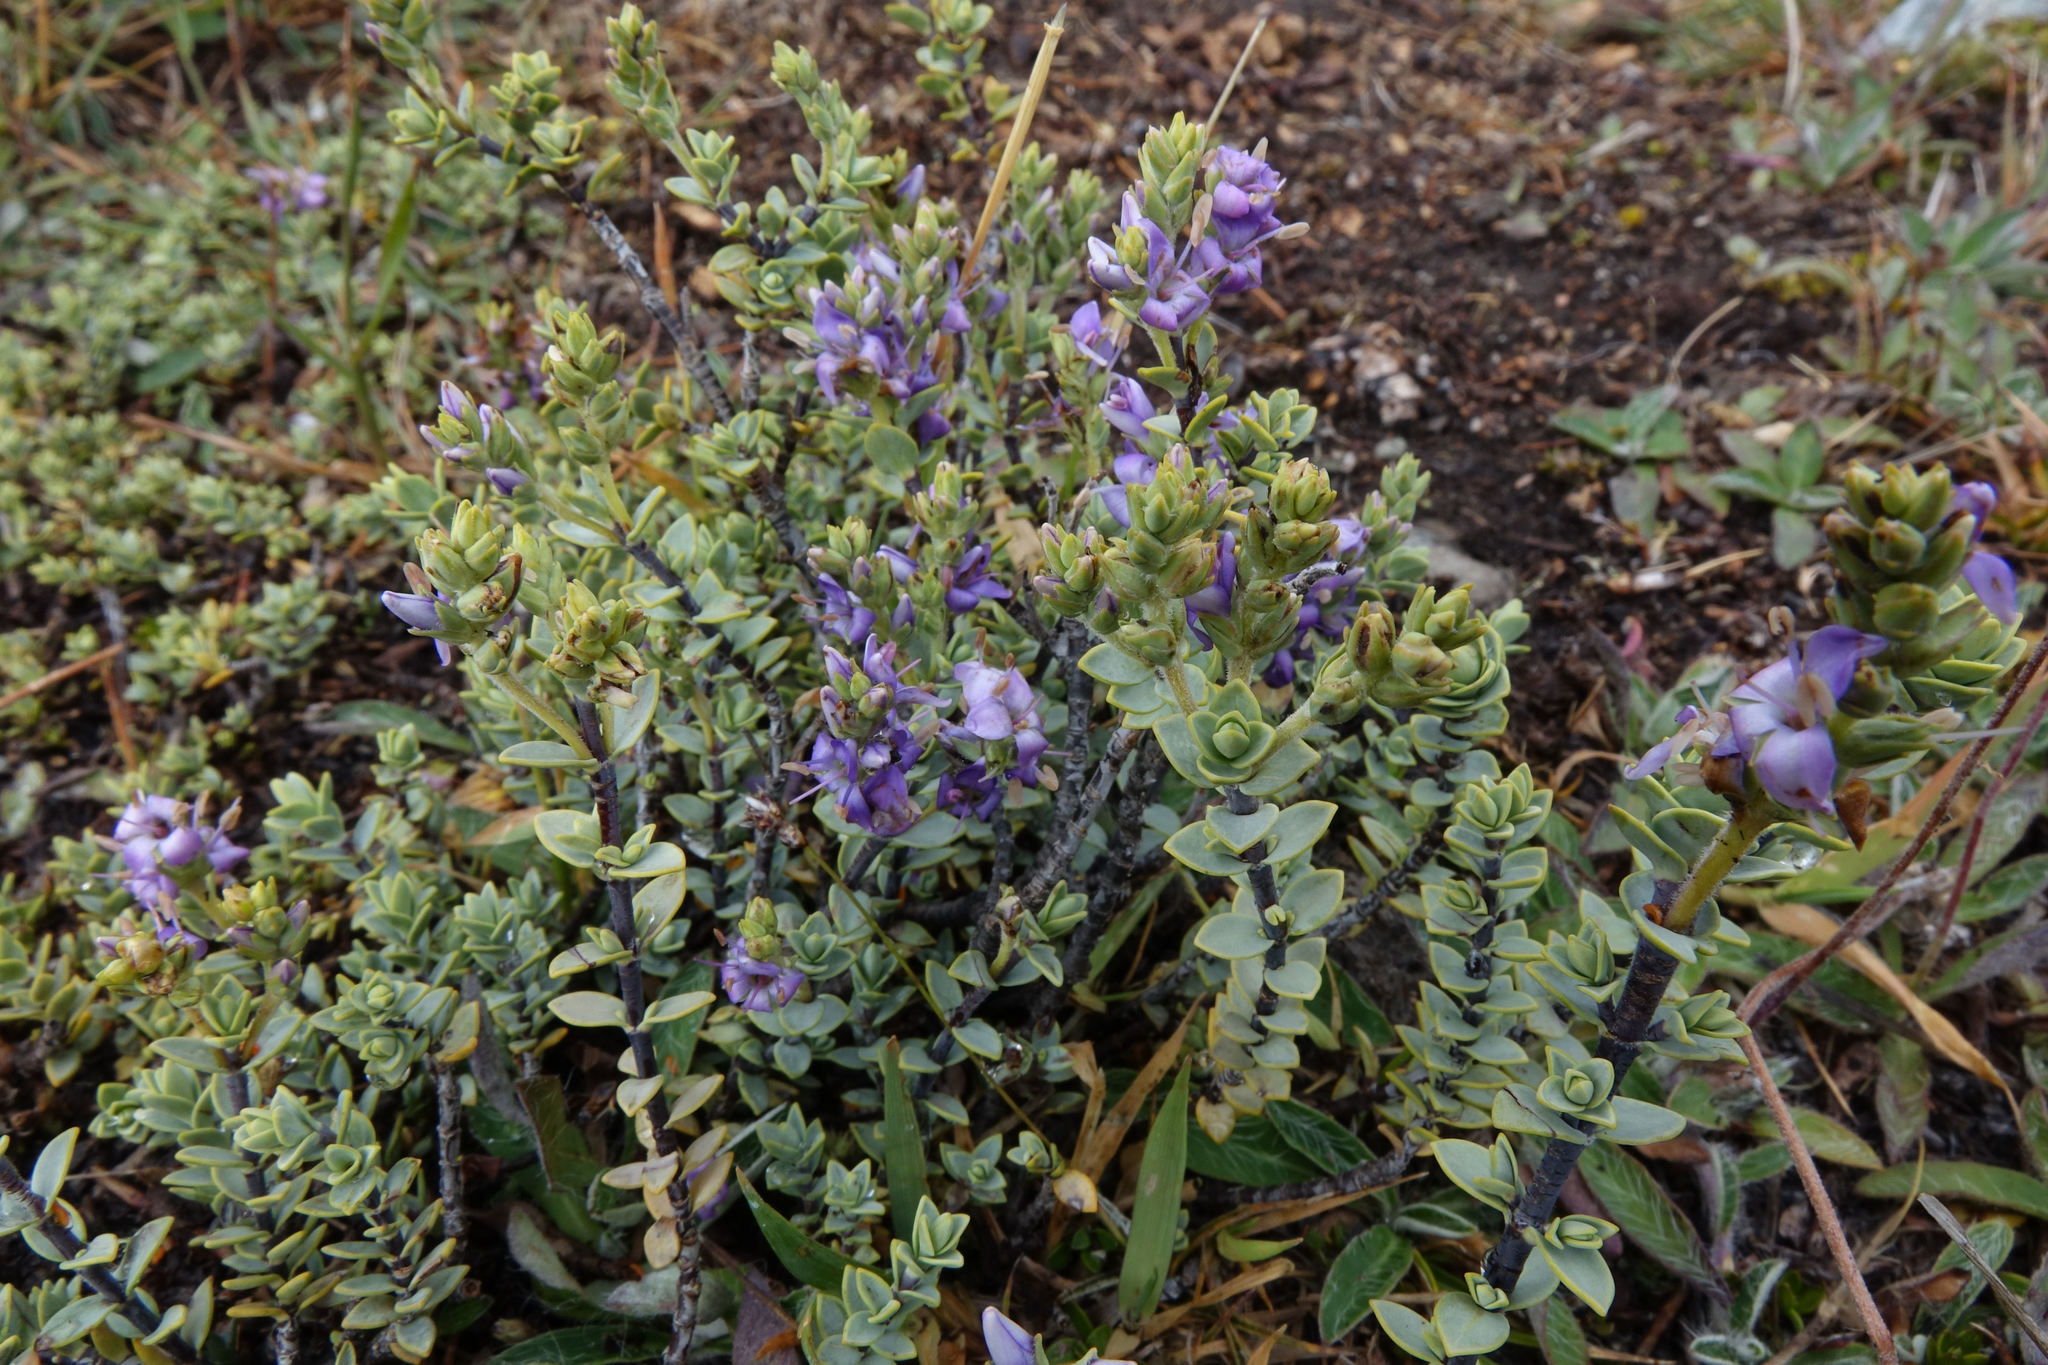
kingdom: Plantae
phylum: Tracheophyta
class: Magnoliopsida
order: Lamiales
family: Plantaginaceae
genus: Veronica
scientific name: Veronica pimeleoides
